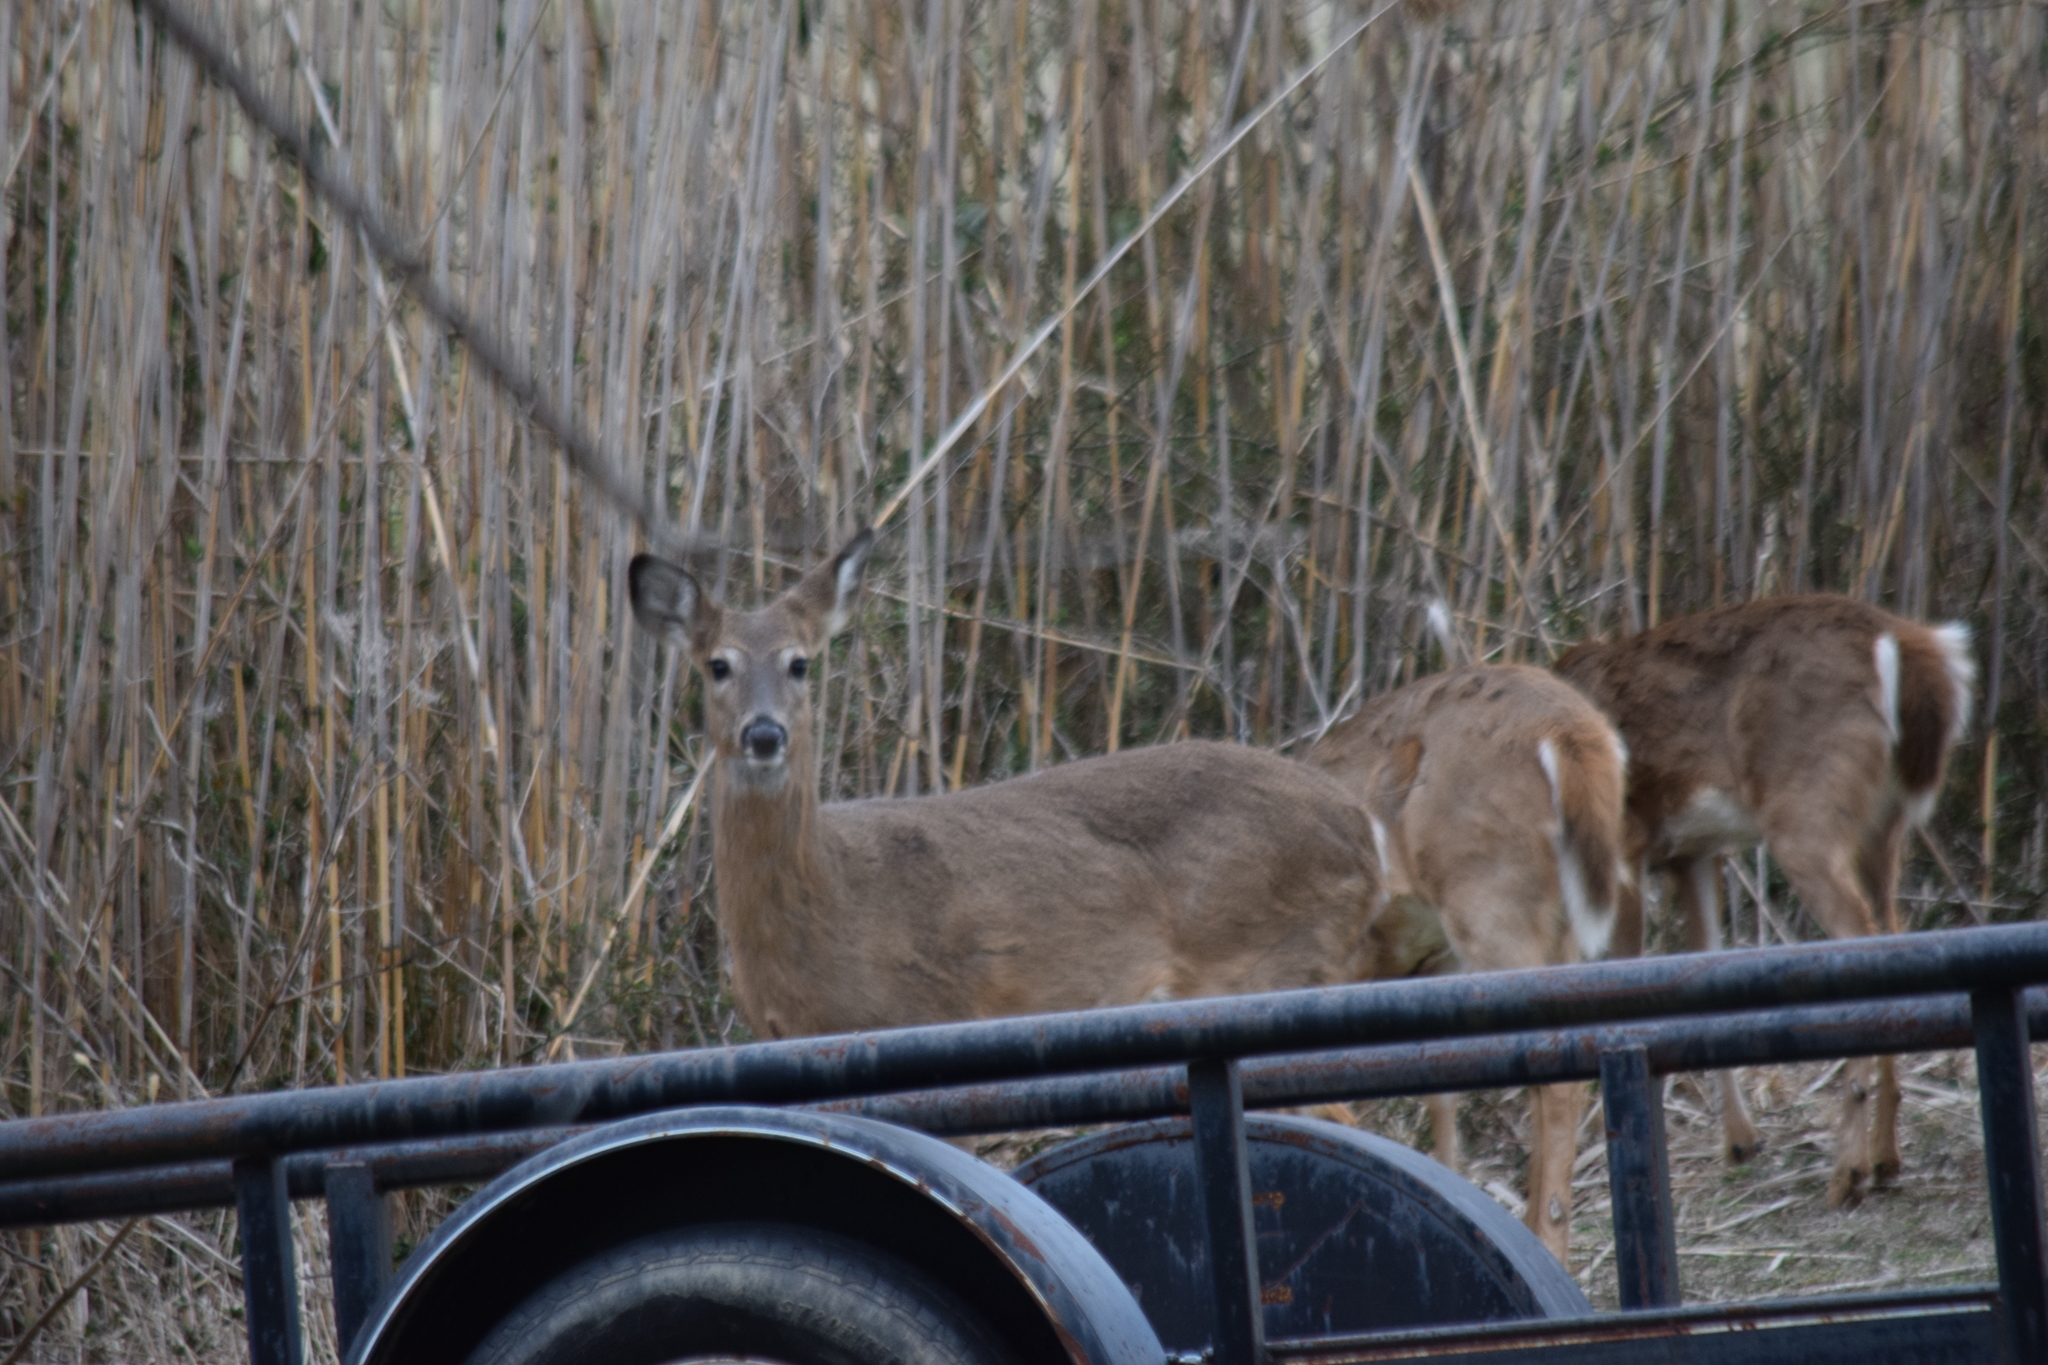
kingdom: Animalia
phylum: Chordata
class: Mammalia
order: Artiodactyla
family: Cervidae
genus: Odocoileus
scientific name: Odocoileus virginianus
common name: White-tailed deer
